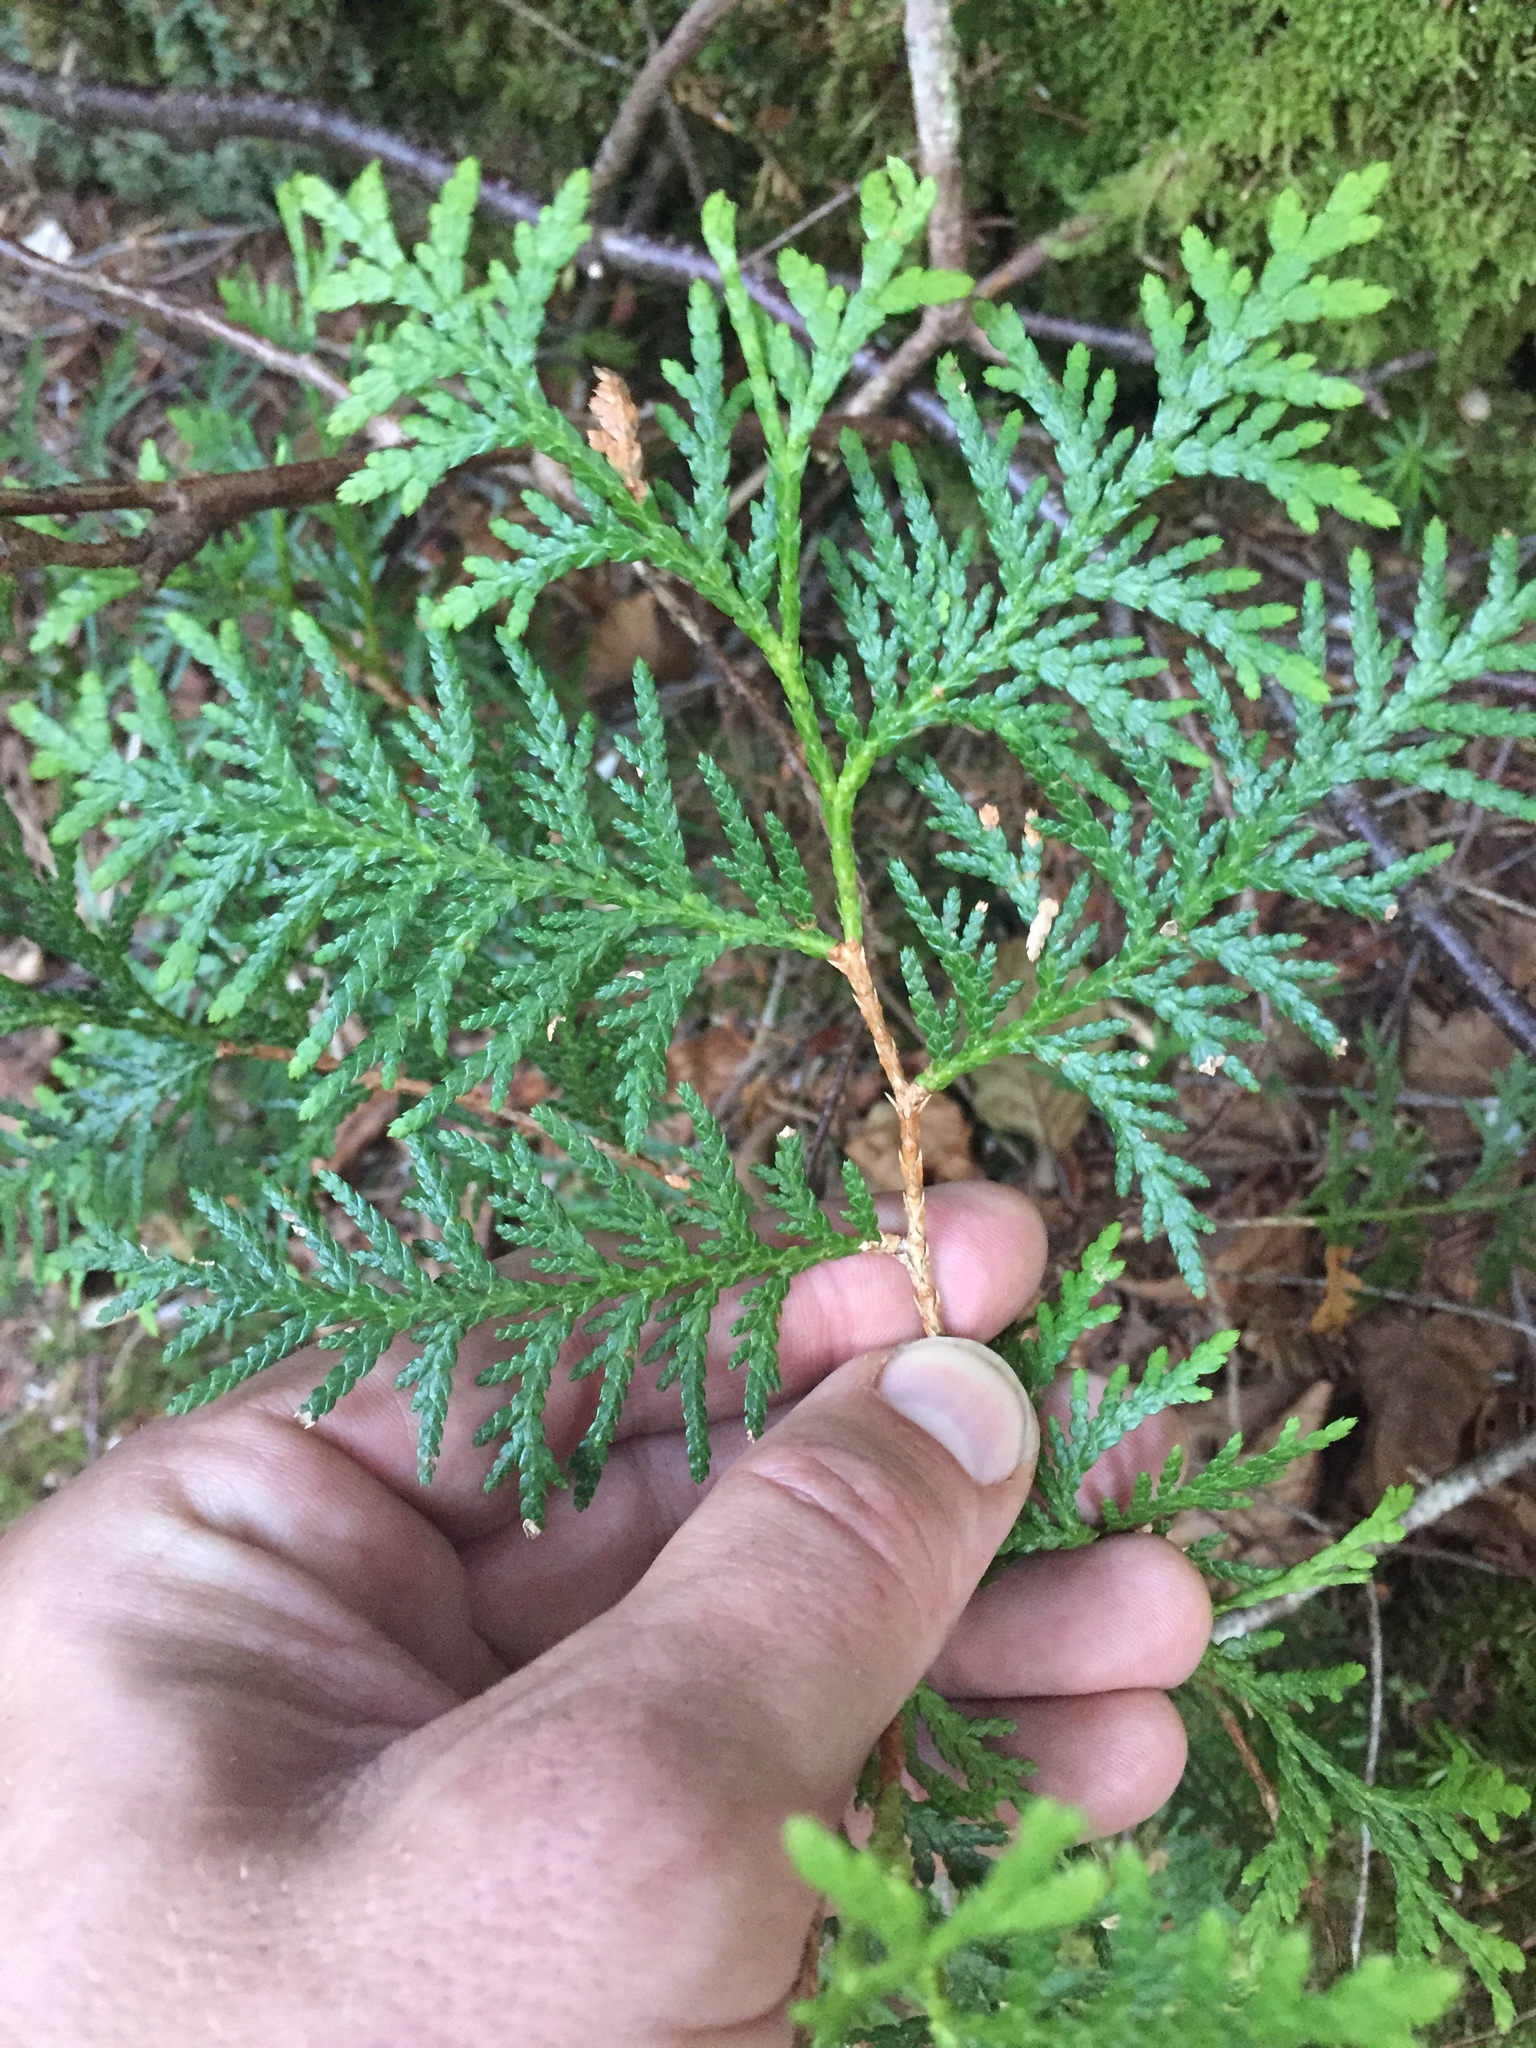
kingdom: Plantae
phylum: Tracheophyta
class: Pinopsida
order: Pinales
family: Cupressaceae
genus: Thuja
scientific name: Thuja occidentalis
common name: Northern white-cedar
